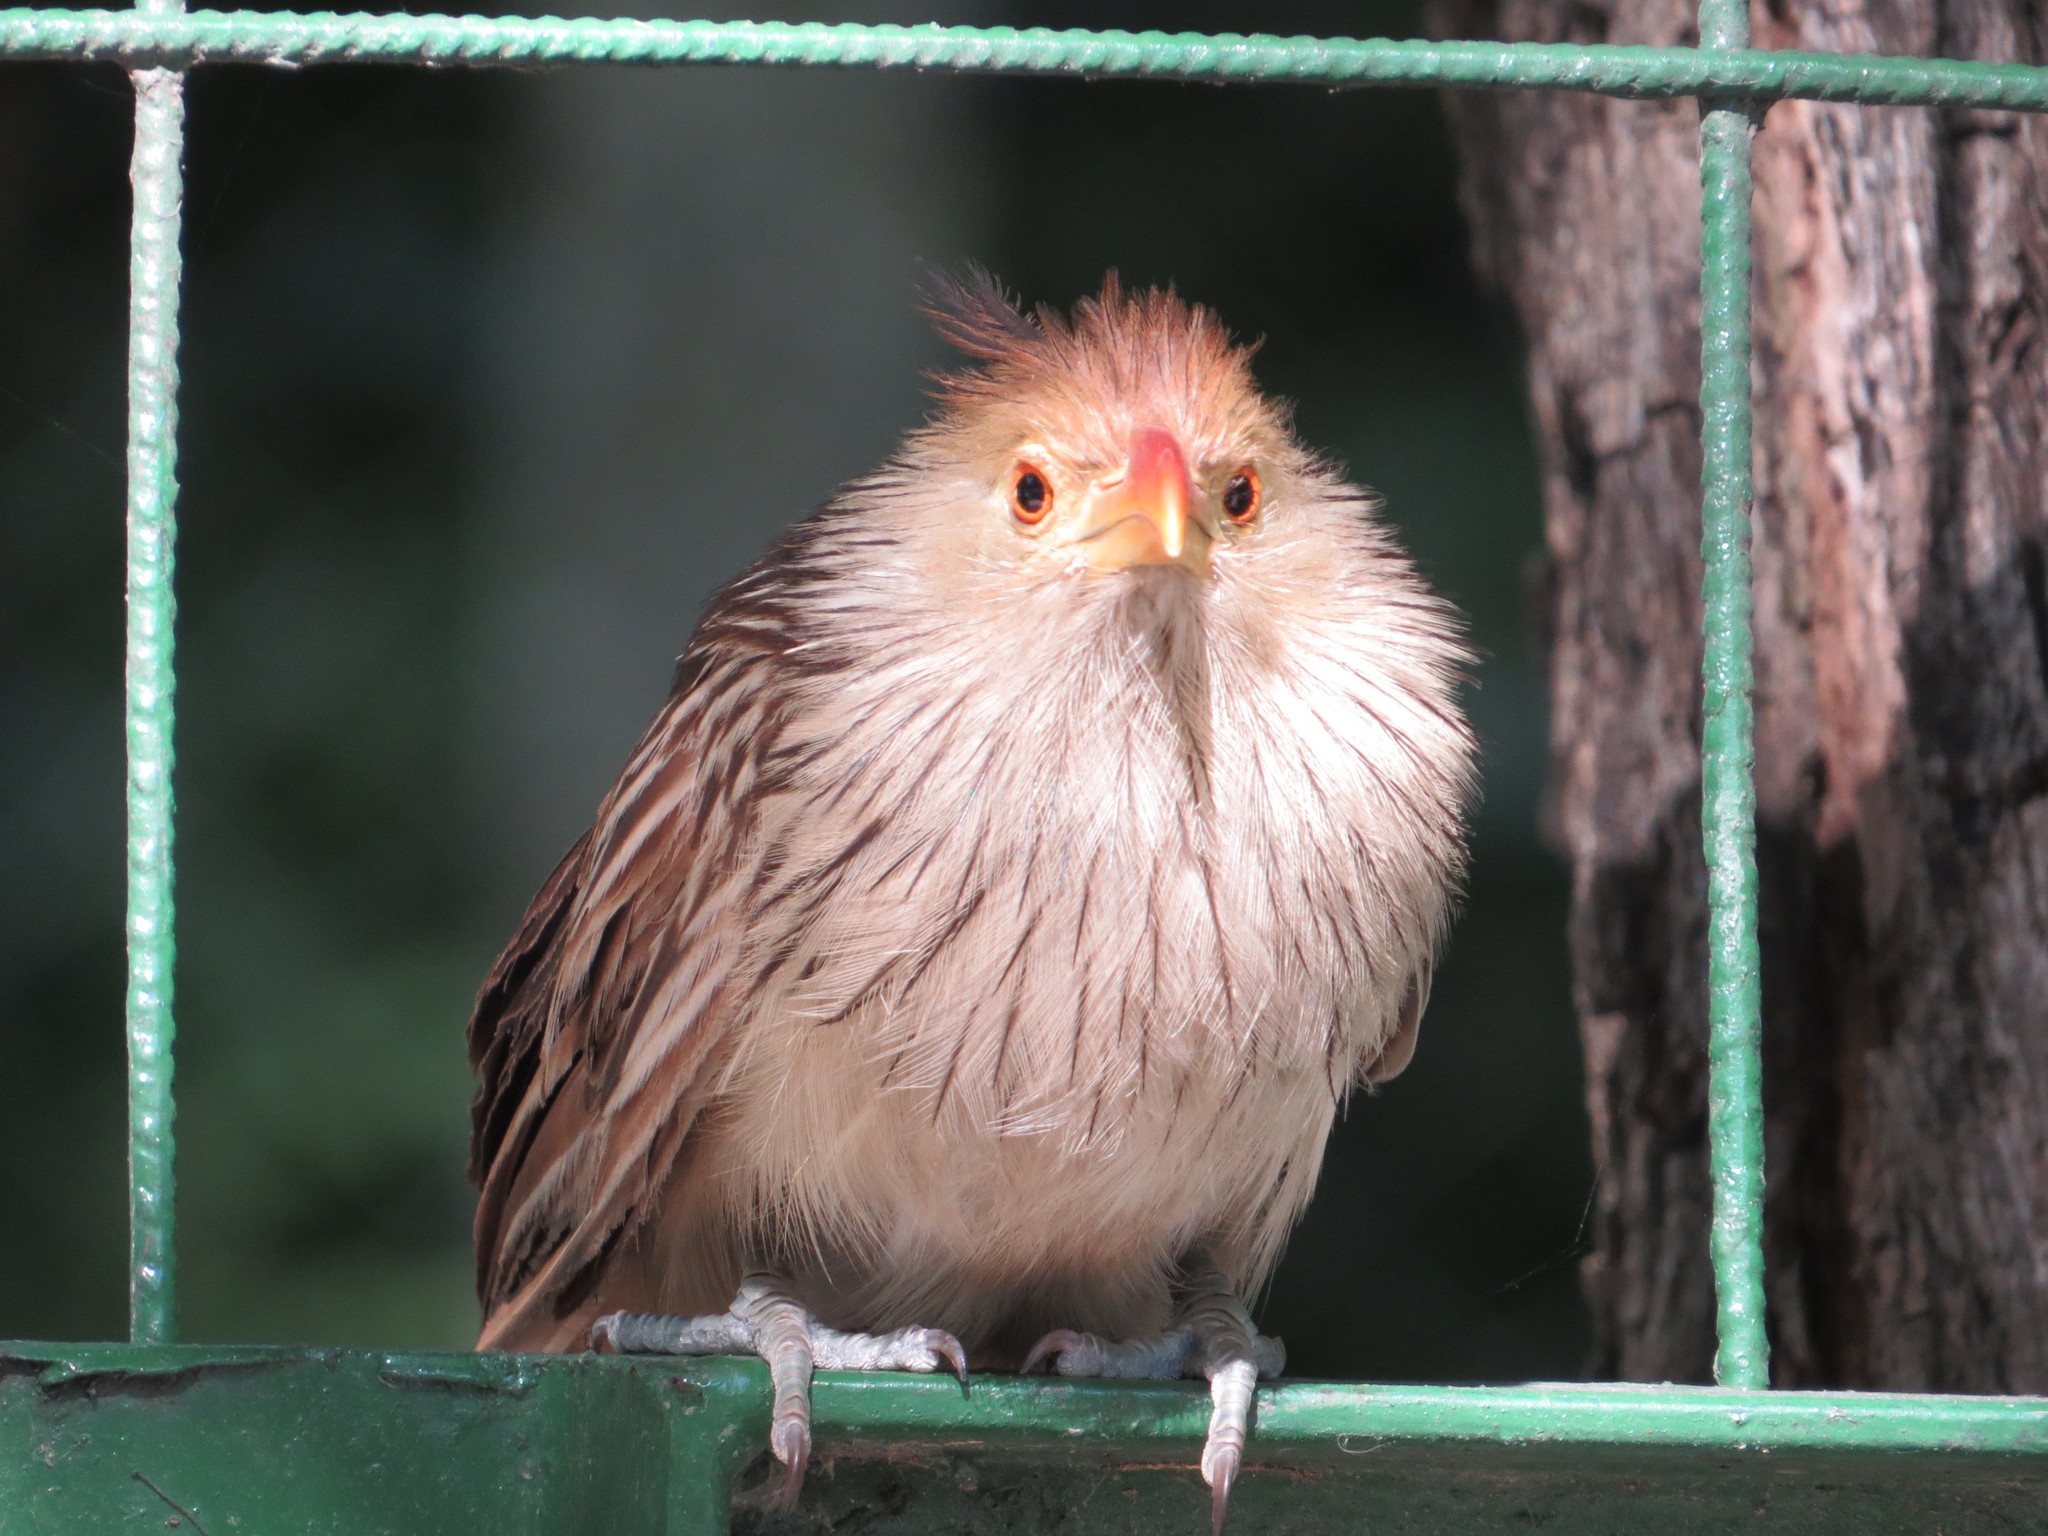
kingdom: Animalia
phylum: Chordata
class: Aves
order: Cuculiformes
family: Cuculidae
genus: Guira
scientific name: Guira guira
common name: Guira cuckoo
